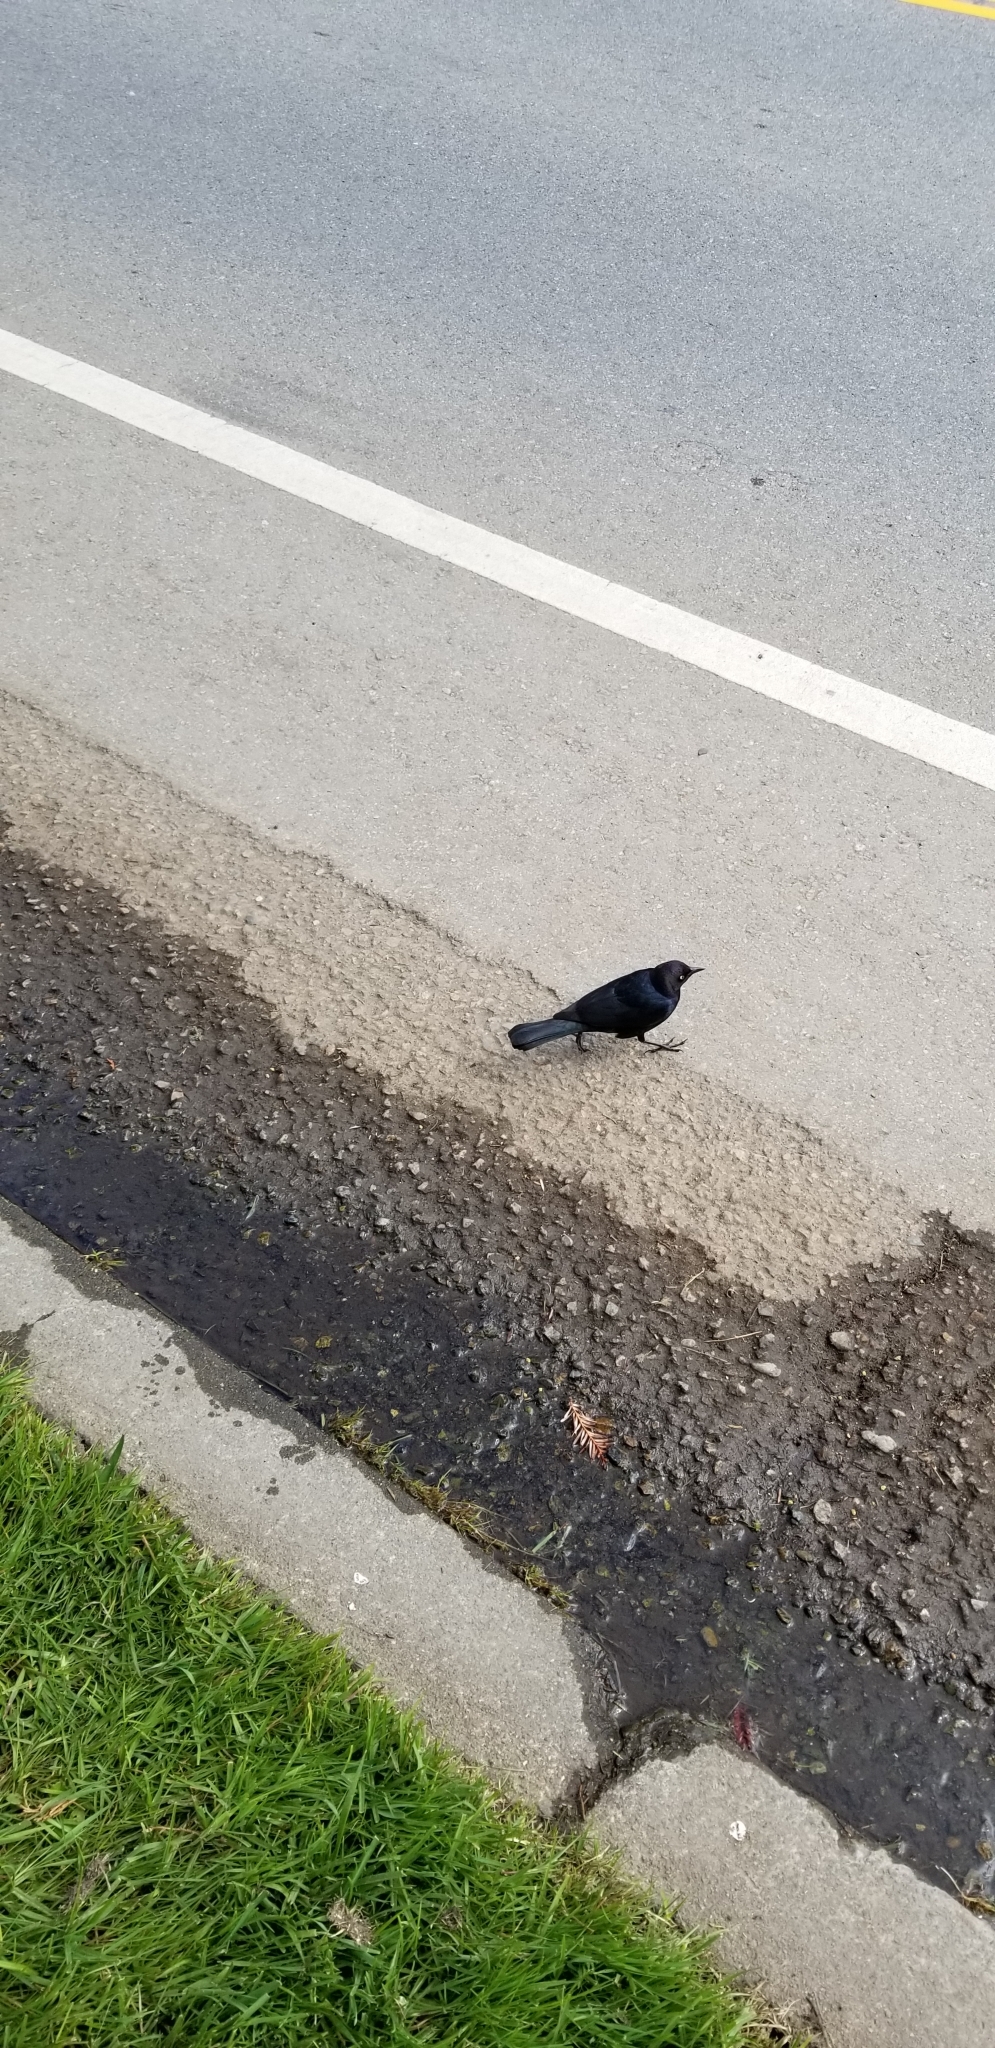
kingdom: Animalia
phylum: Chordata
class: Aves
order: Passeriformes
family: Icteridae
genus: Euphagus
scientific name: Euphagus cyanocephalus
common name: Brewer's blackbird
